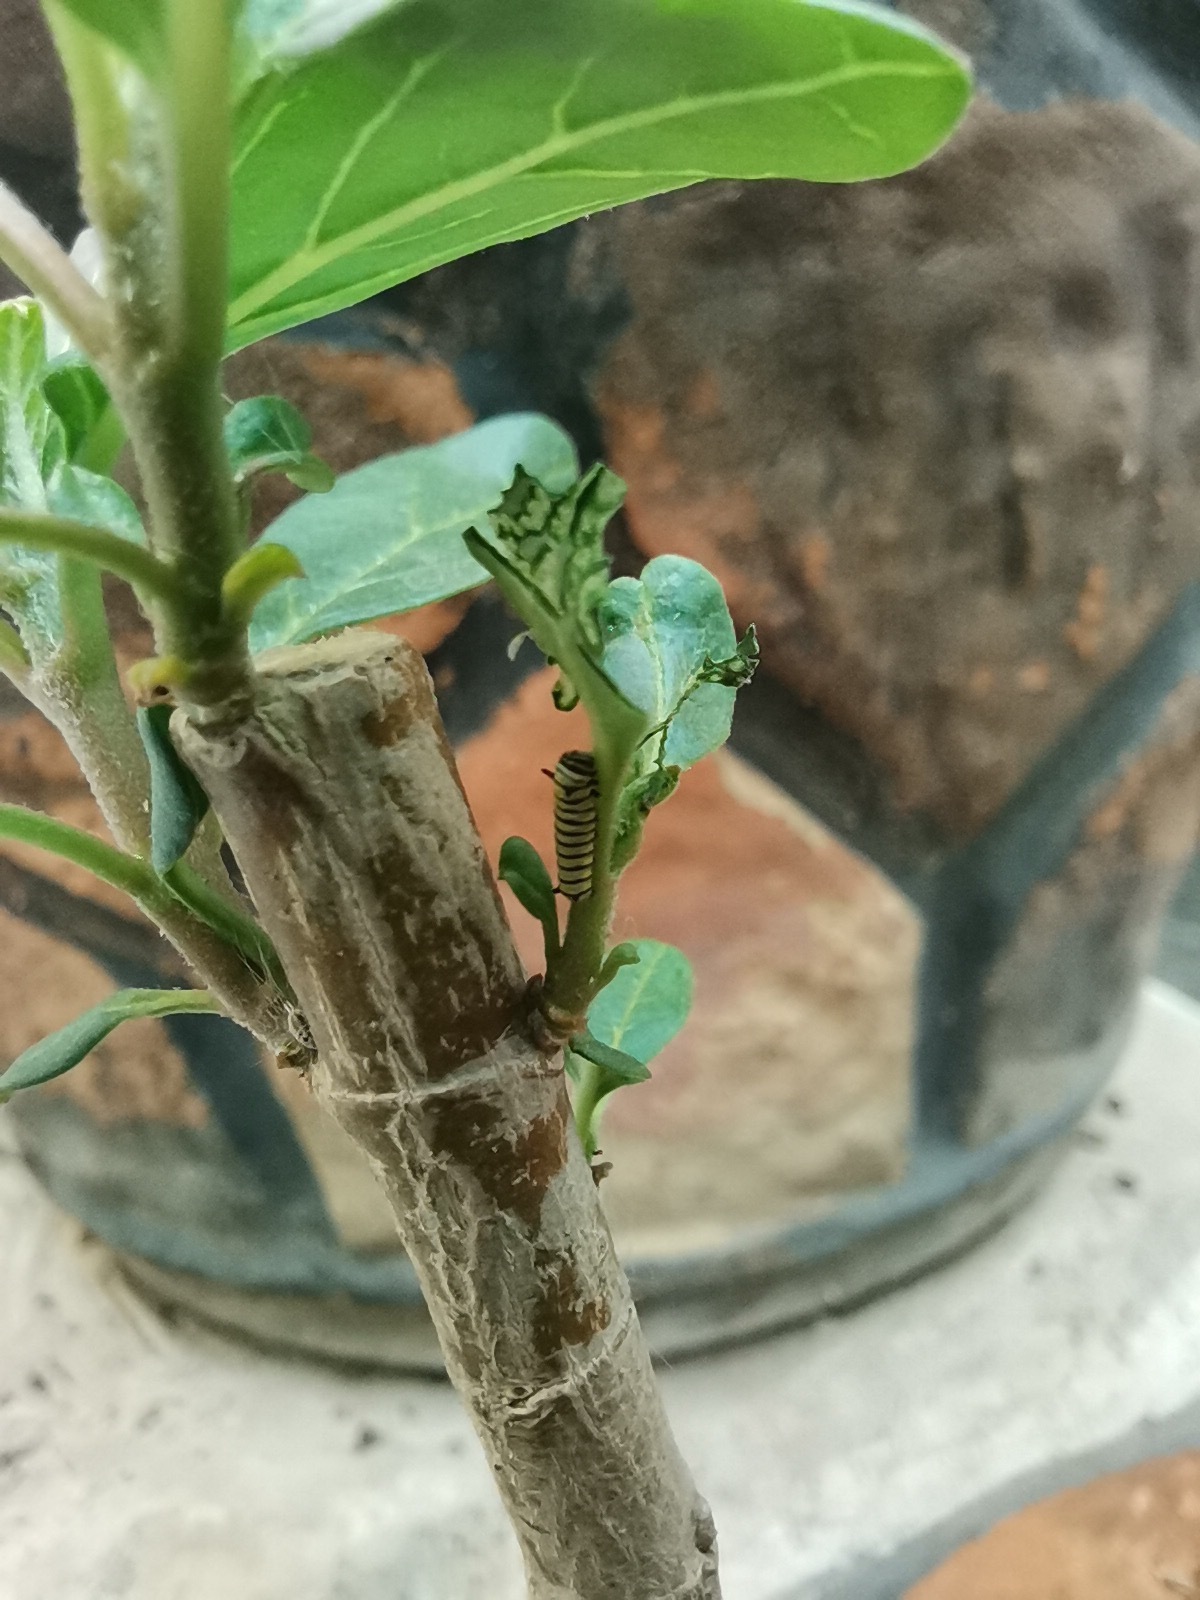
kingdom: Animalia
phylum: Arthropoda
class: Insecta
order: Lepidoptera
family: Nymphalidae
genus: Danaus
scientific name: Danaus plexippus
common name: Monarch
